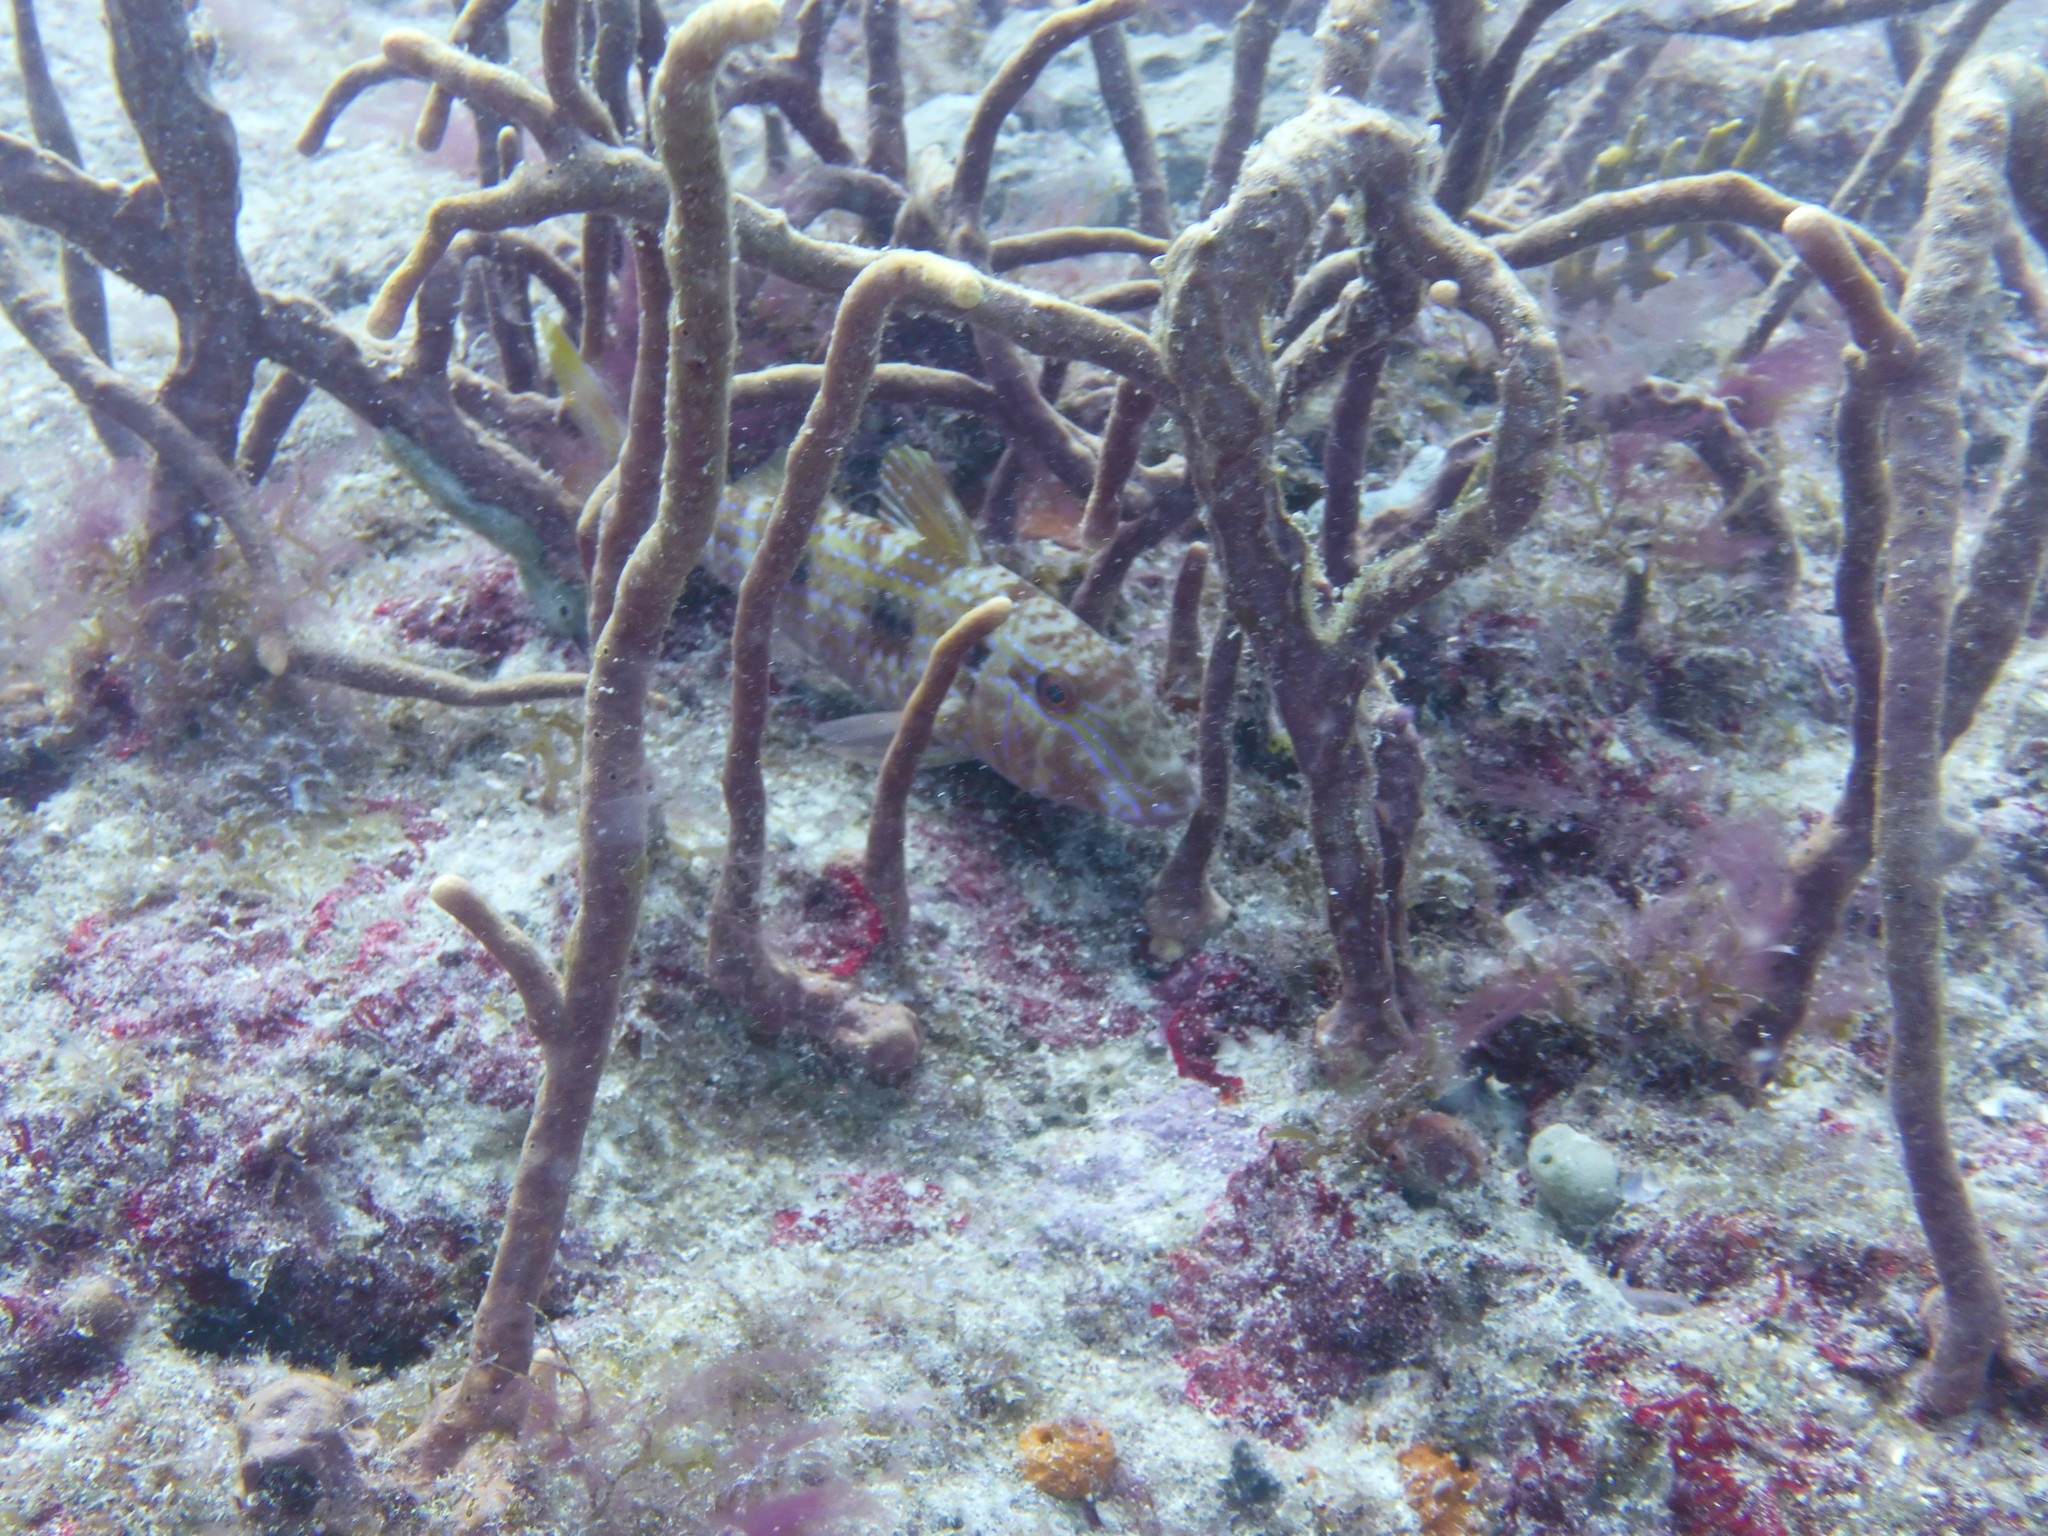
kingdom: Animalia
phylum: Chordata
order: Perciformes
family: Mullidae
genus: Pseudupeneus
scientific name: Pseudupeneus maculatus
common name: Spotted goatfish
